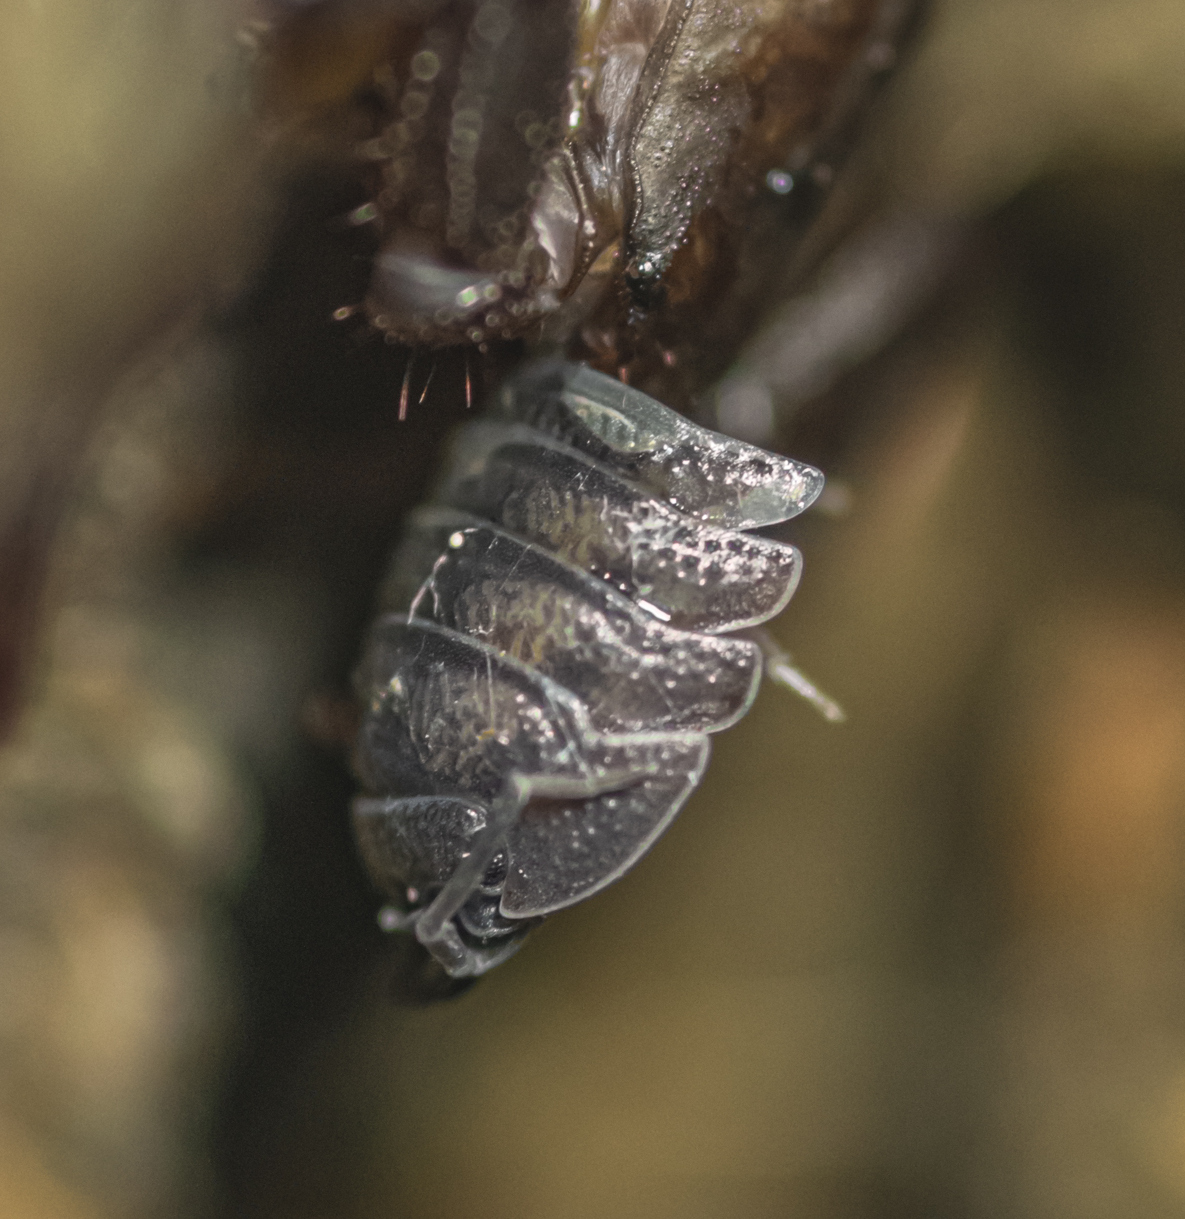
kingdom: Animalia
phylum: Arthropoda
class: Malacostraca
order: Isopoda
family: Armadillidiidae
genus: Armadillidium
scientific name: Armadillidium nasatum
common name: Isopod
